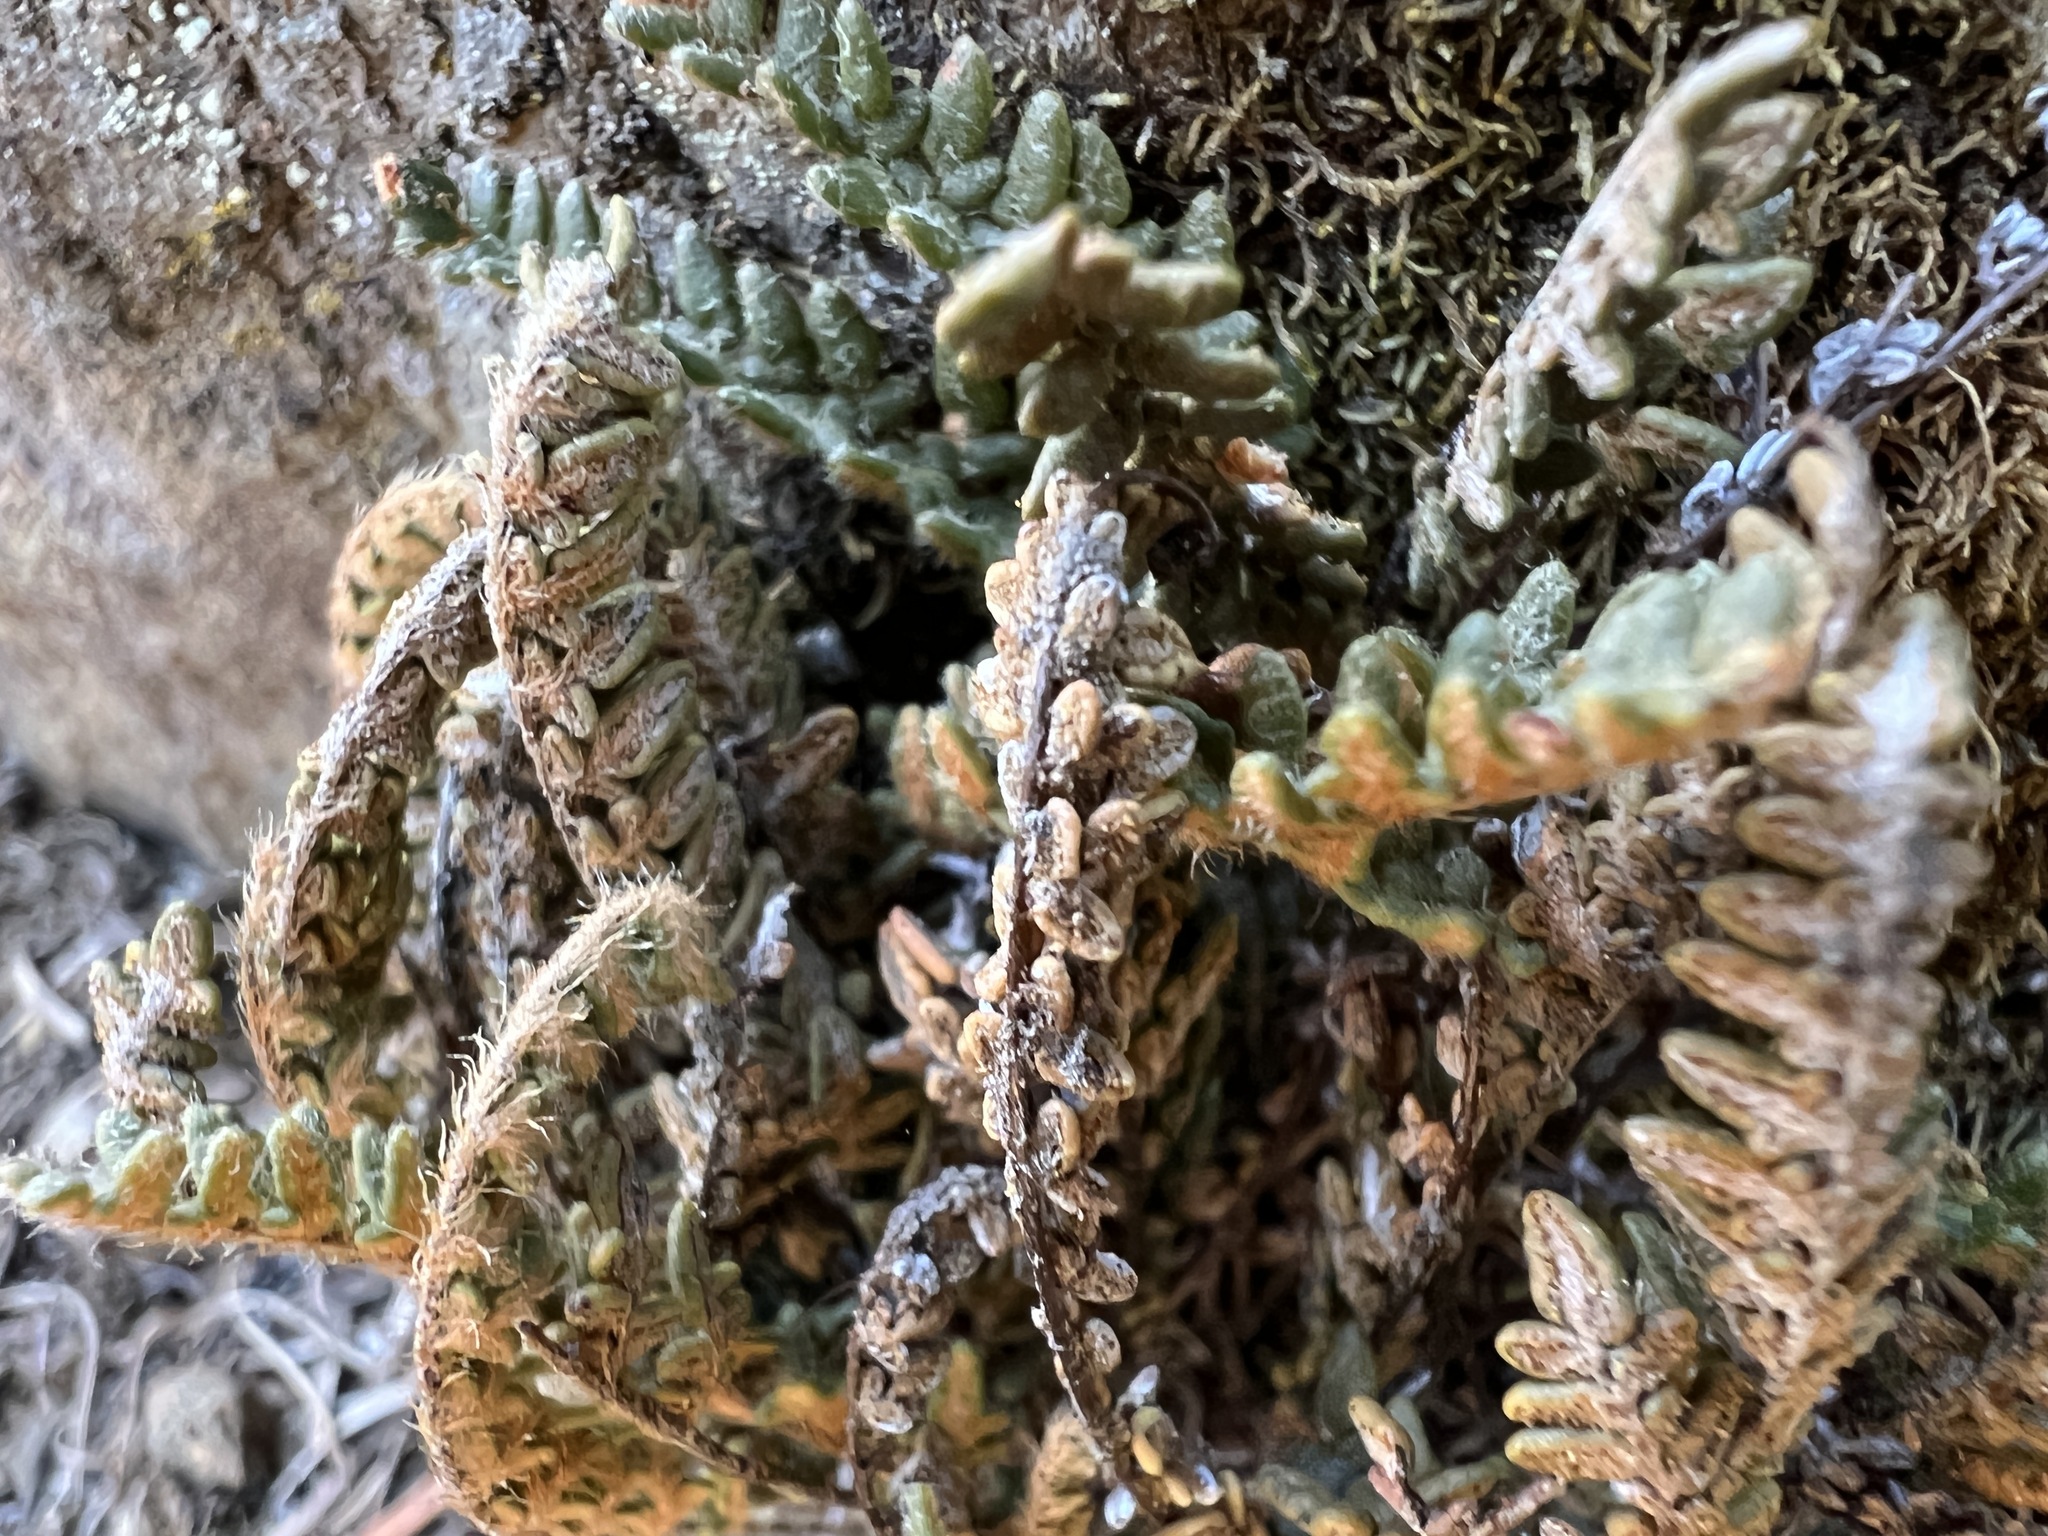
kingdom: Plantae
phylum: Tracheophyta
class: Polypodiopsida
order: Polypodiales
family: Pteridaceae
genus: Myriopteris
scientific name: Myriopteris gracillima
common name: Lace fern
